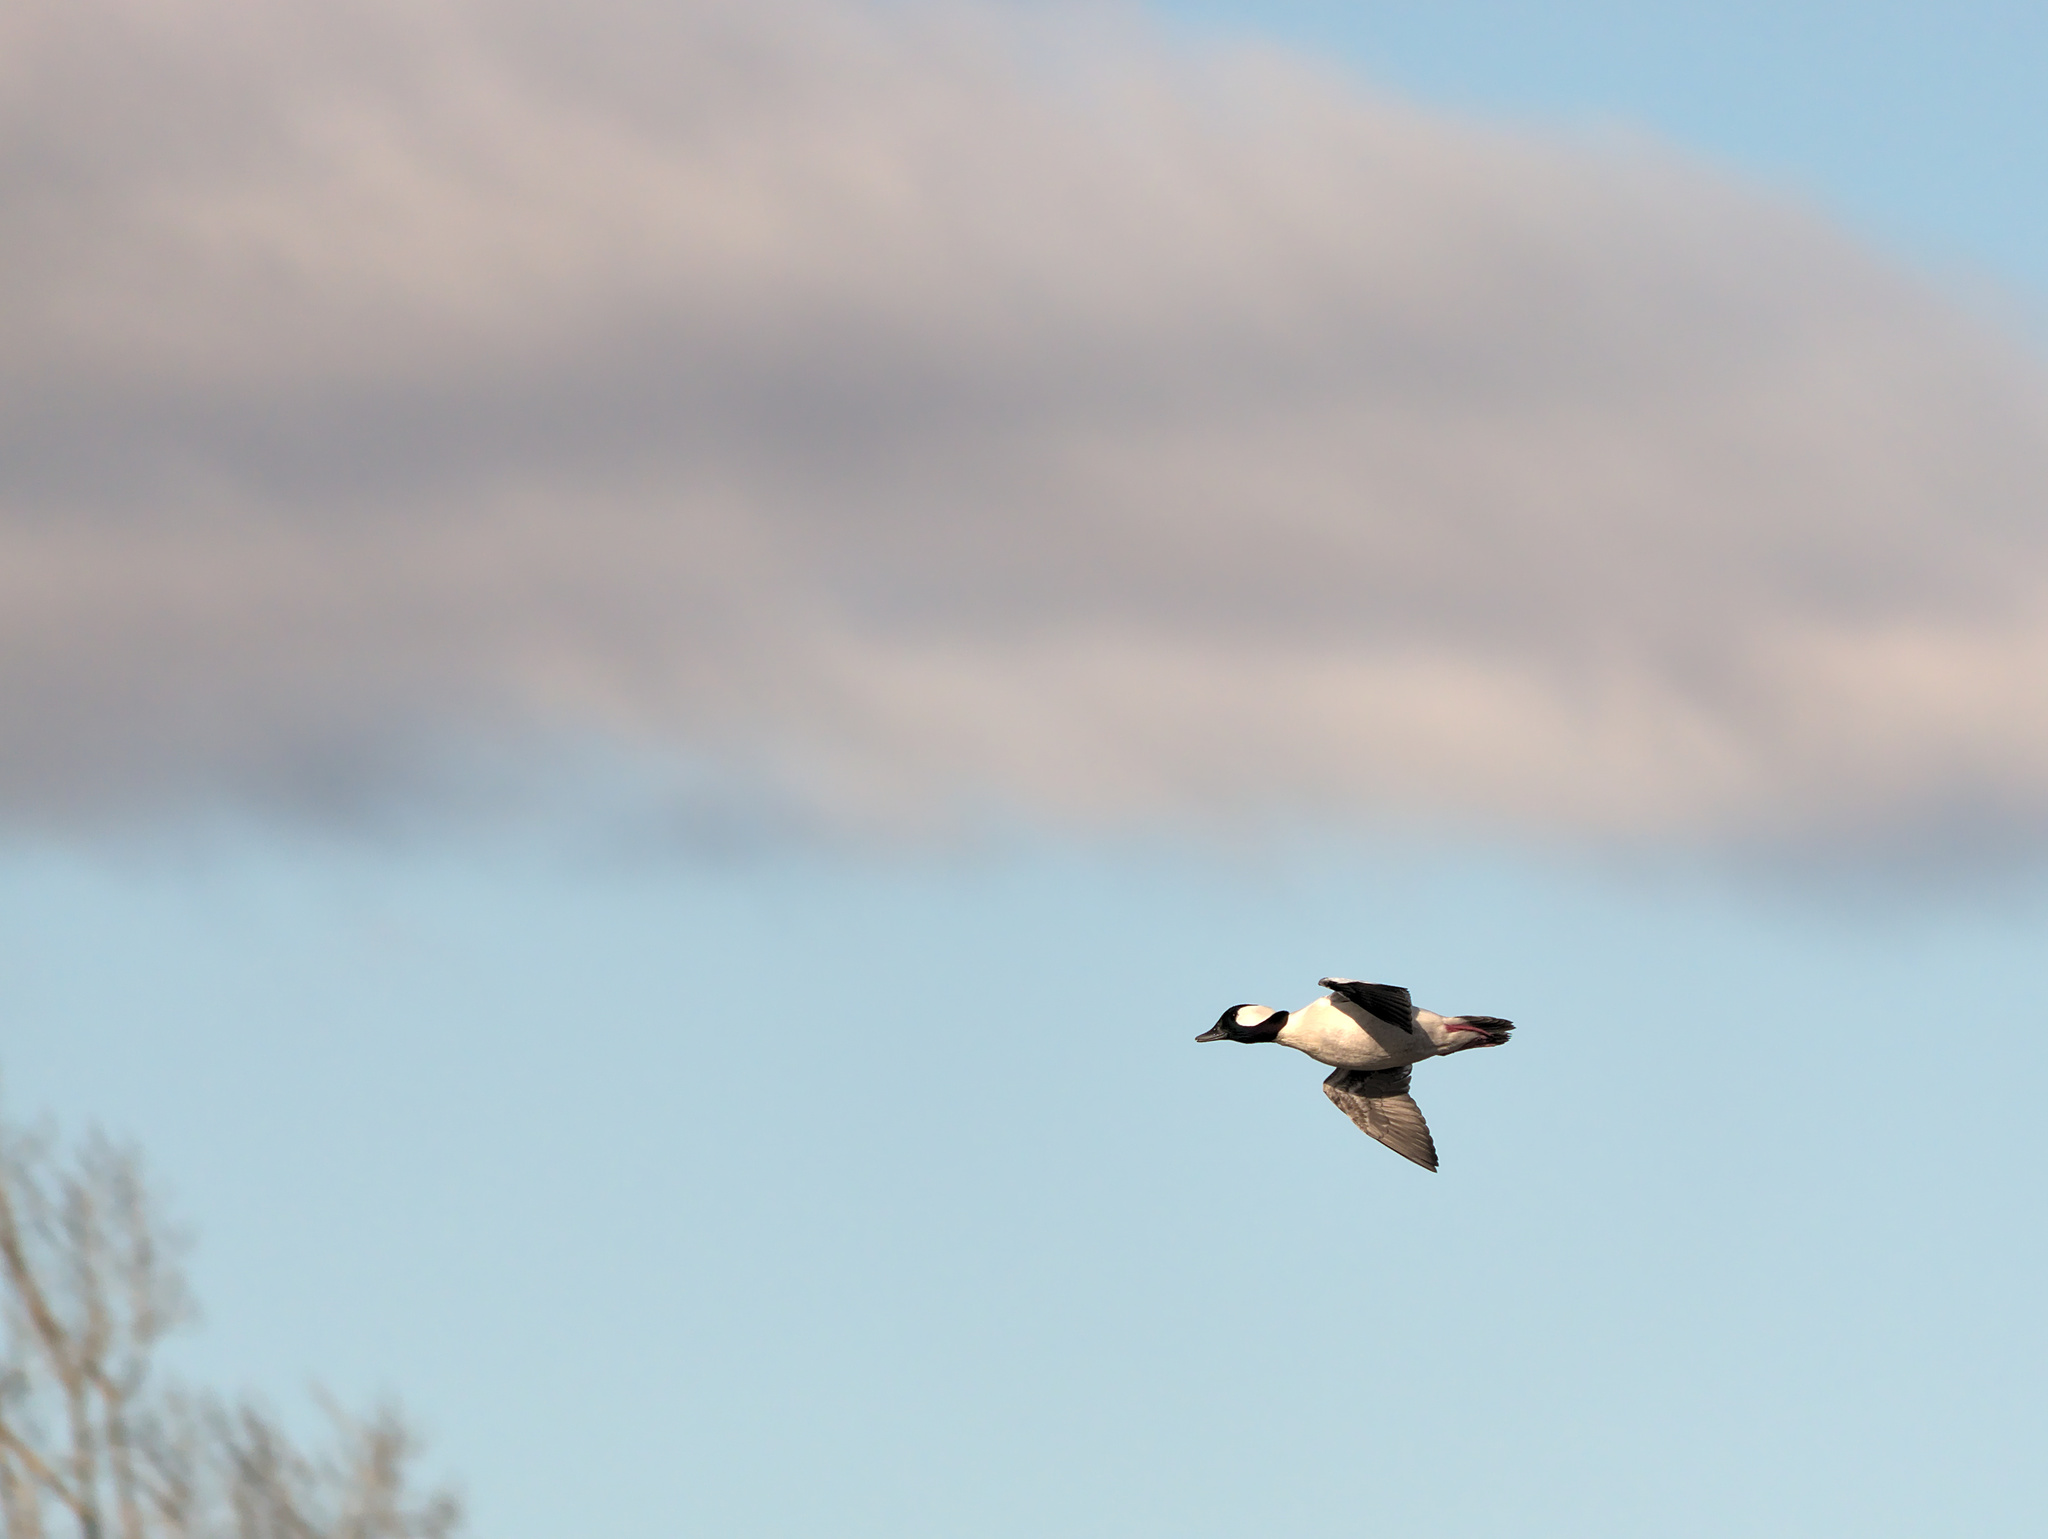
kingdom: Animalia
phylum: Chordata
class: Aves
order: Anseriformes
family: Anatidae
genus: Bucephala
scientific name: Bucephala albeola
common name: Bufflehead
